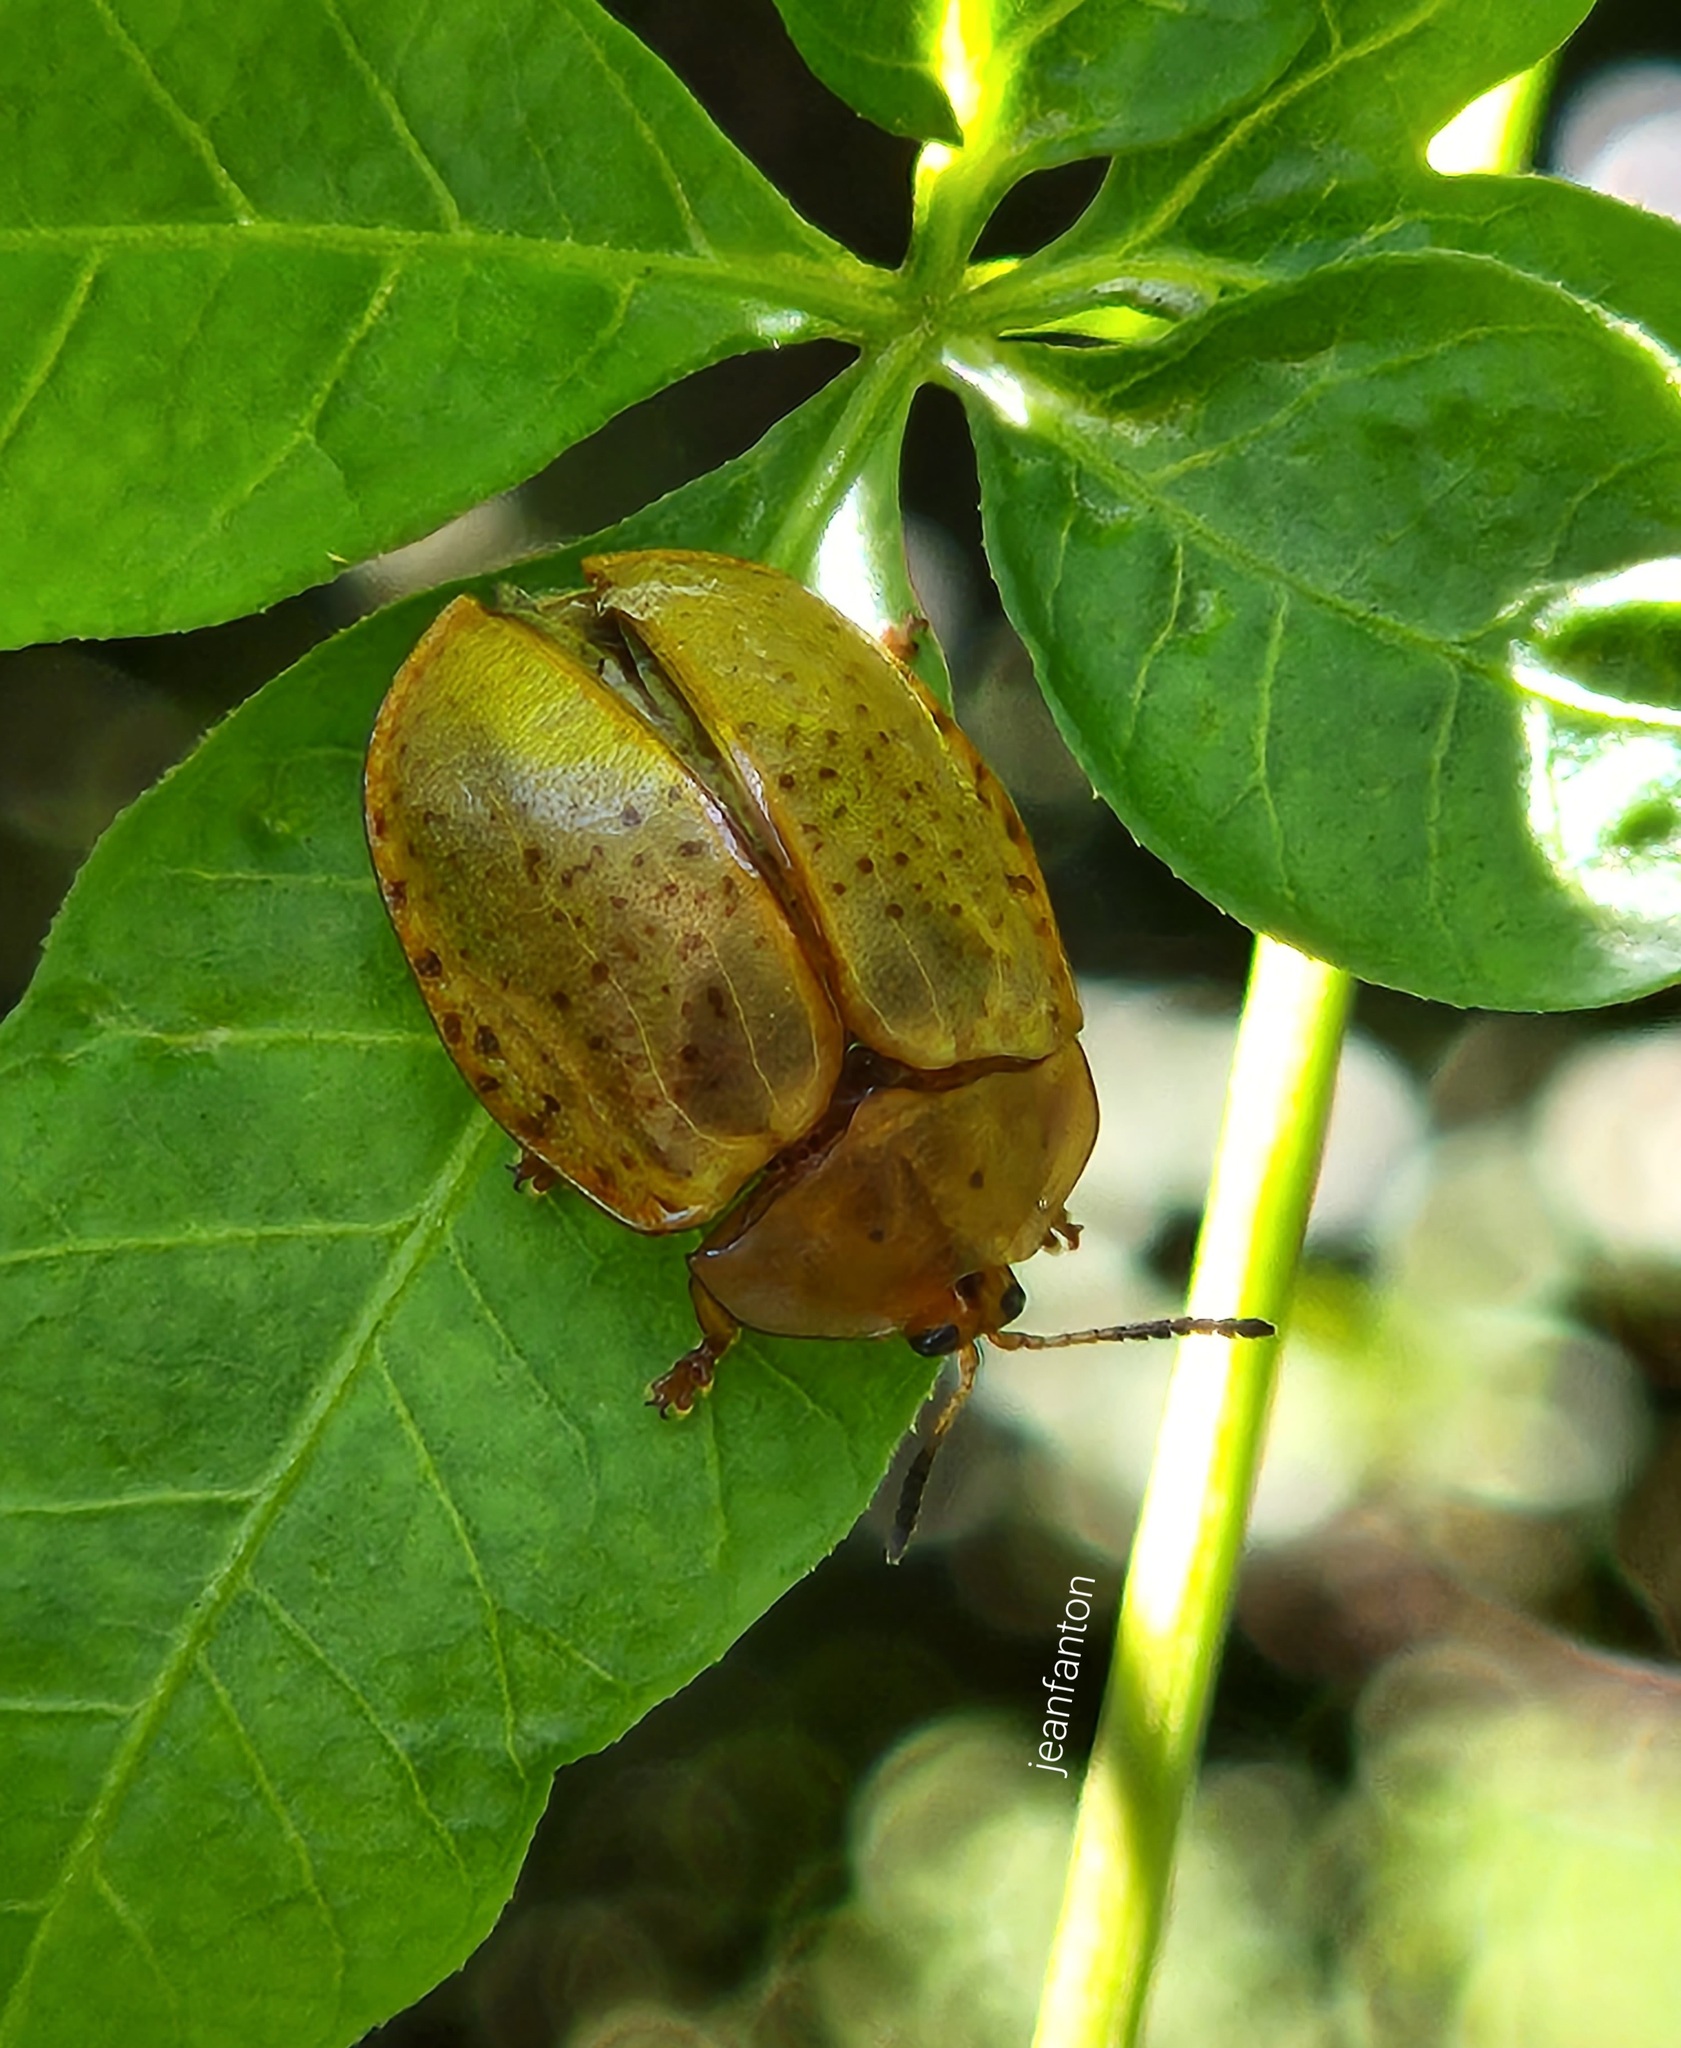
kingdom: Animalia
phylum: Arthropoda
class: Insecta
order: Coleoptera
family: Chrysomelidae
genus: Chelymorpha
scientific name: Chelymorpha cribraria
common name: Tortoise beetle
